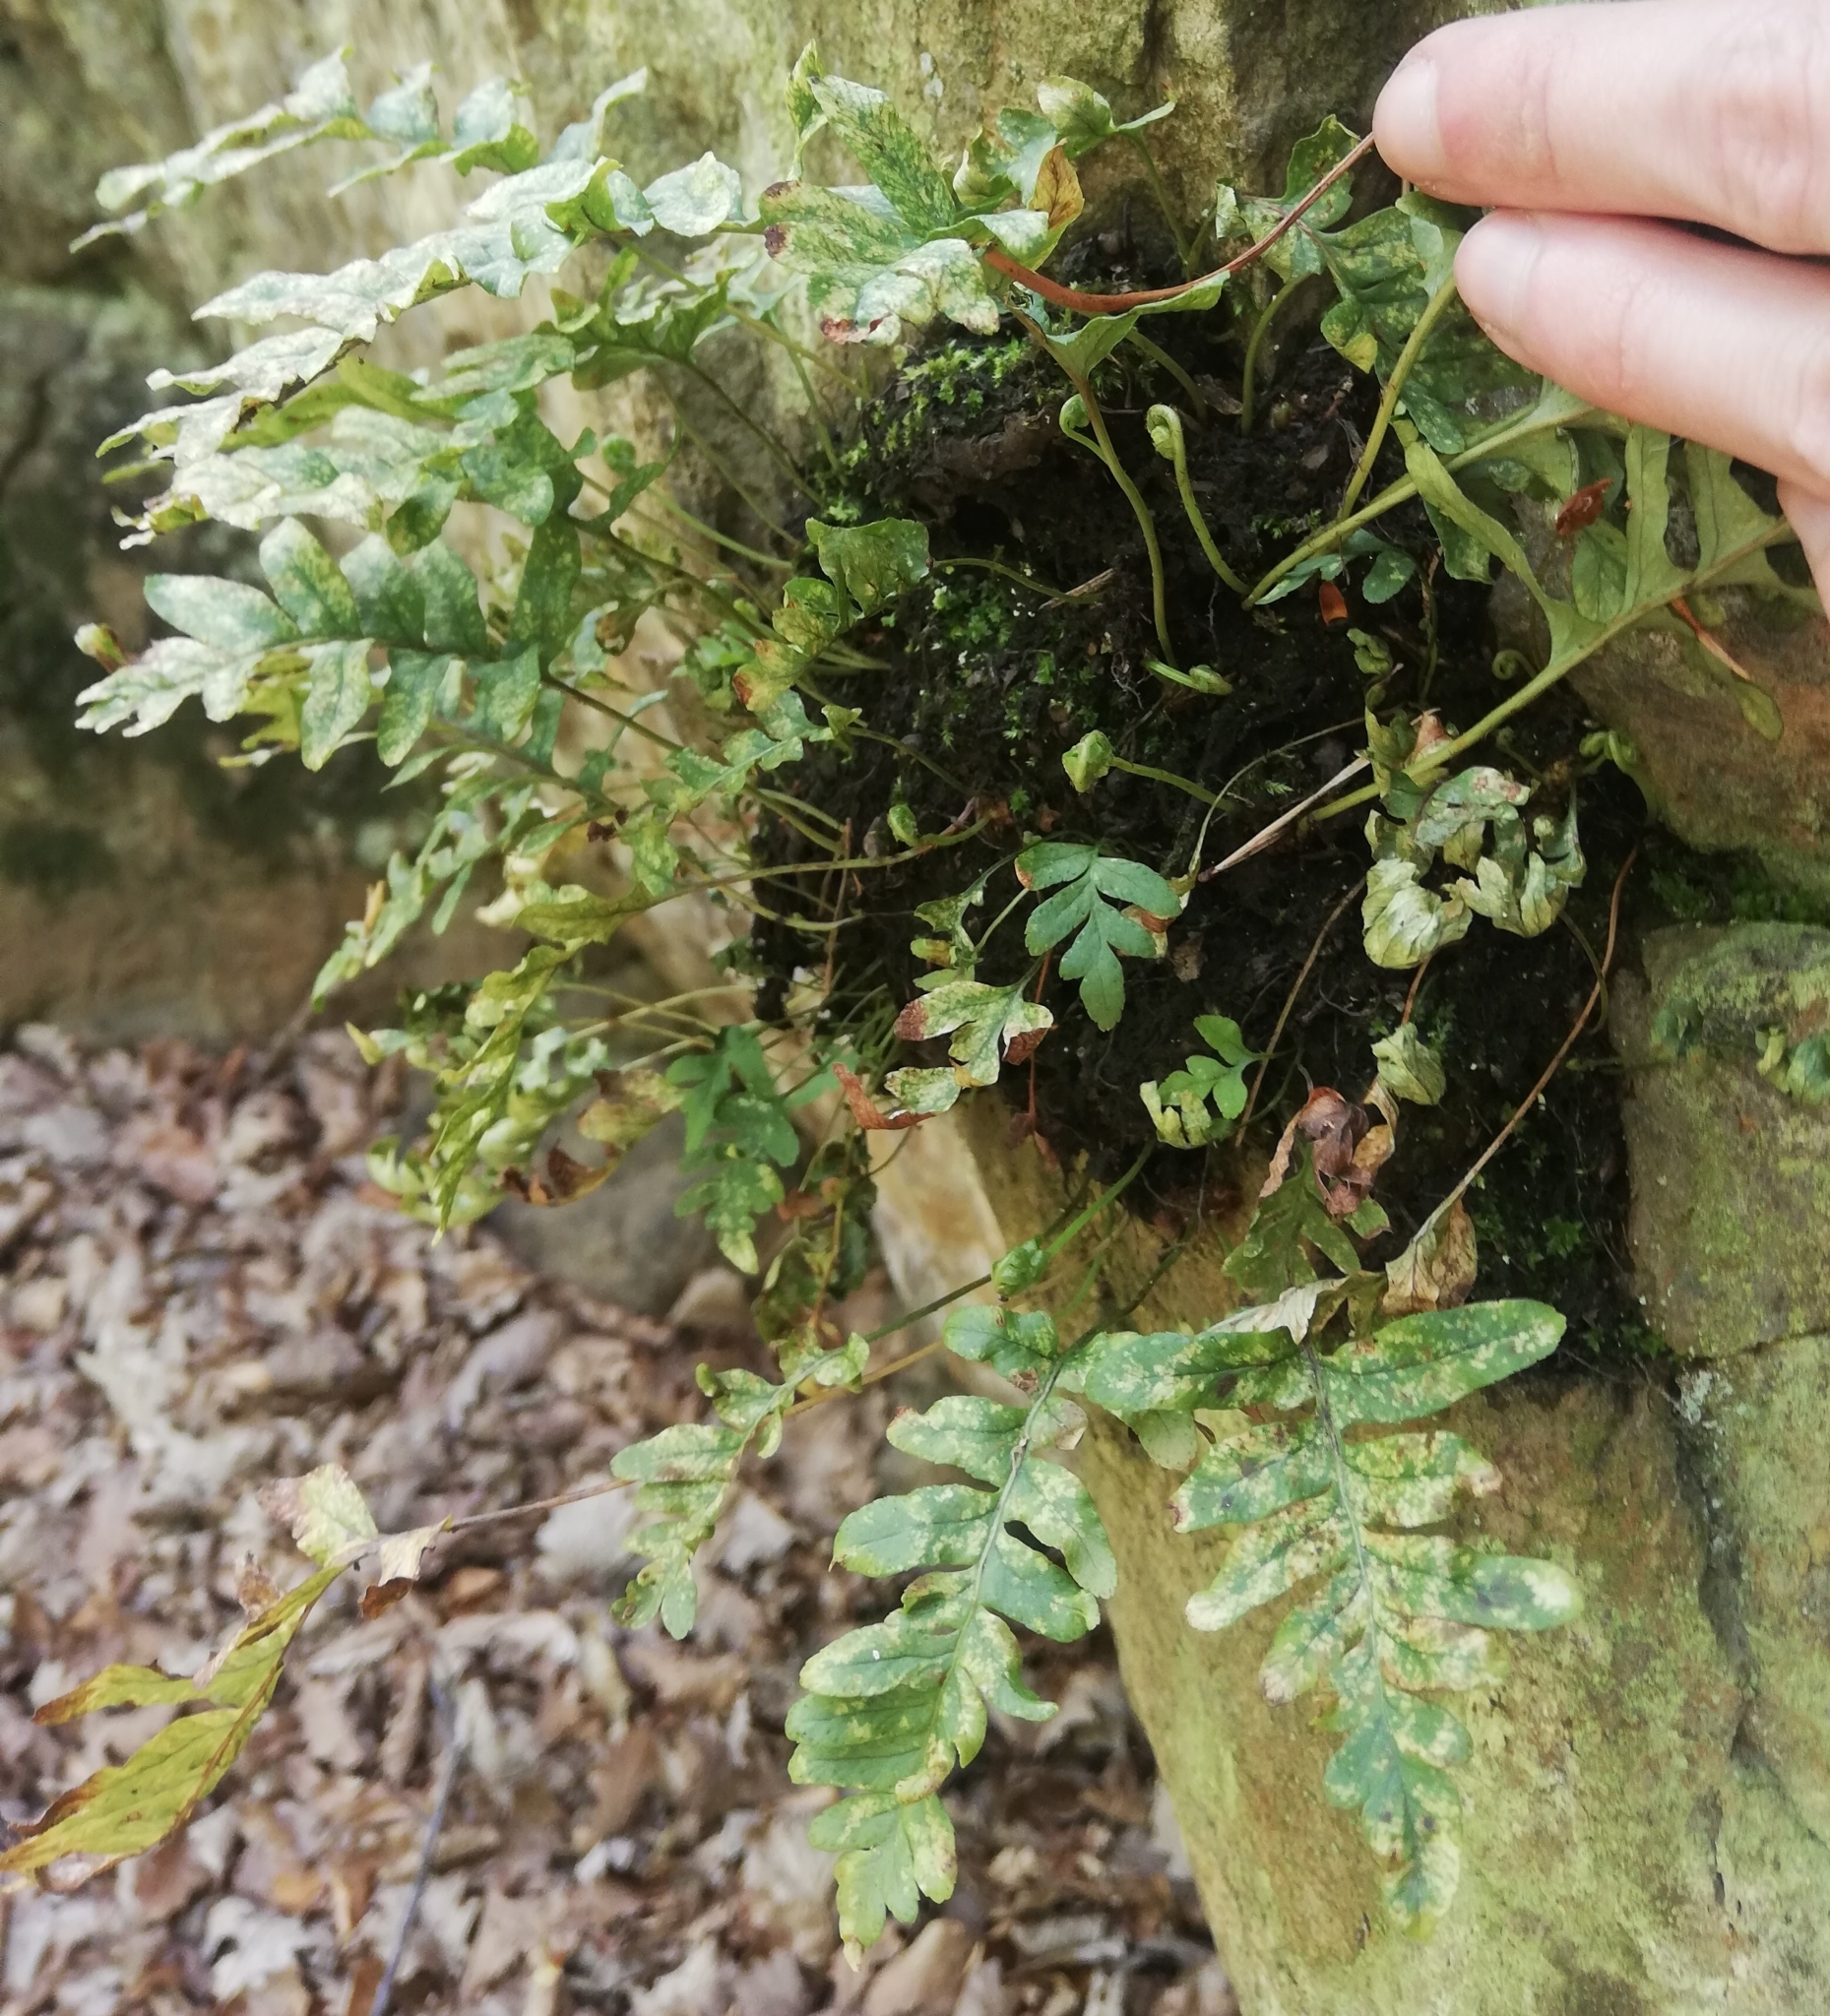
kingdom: Plantae
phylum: Tracheophyta
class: Polypodiopsida
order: Polypodiales
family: Polypodiaceae
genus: Polypodium
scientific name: Polypodium vulgare
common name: Common polypody
